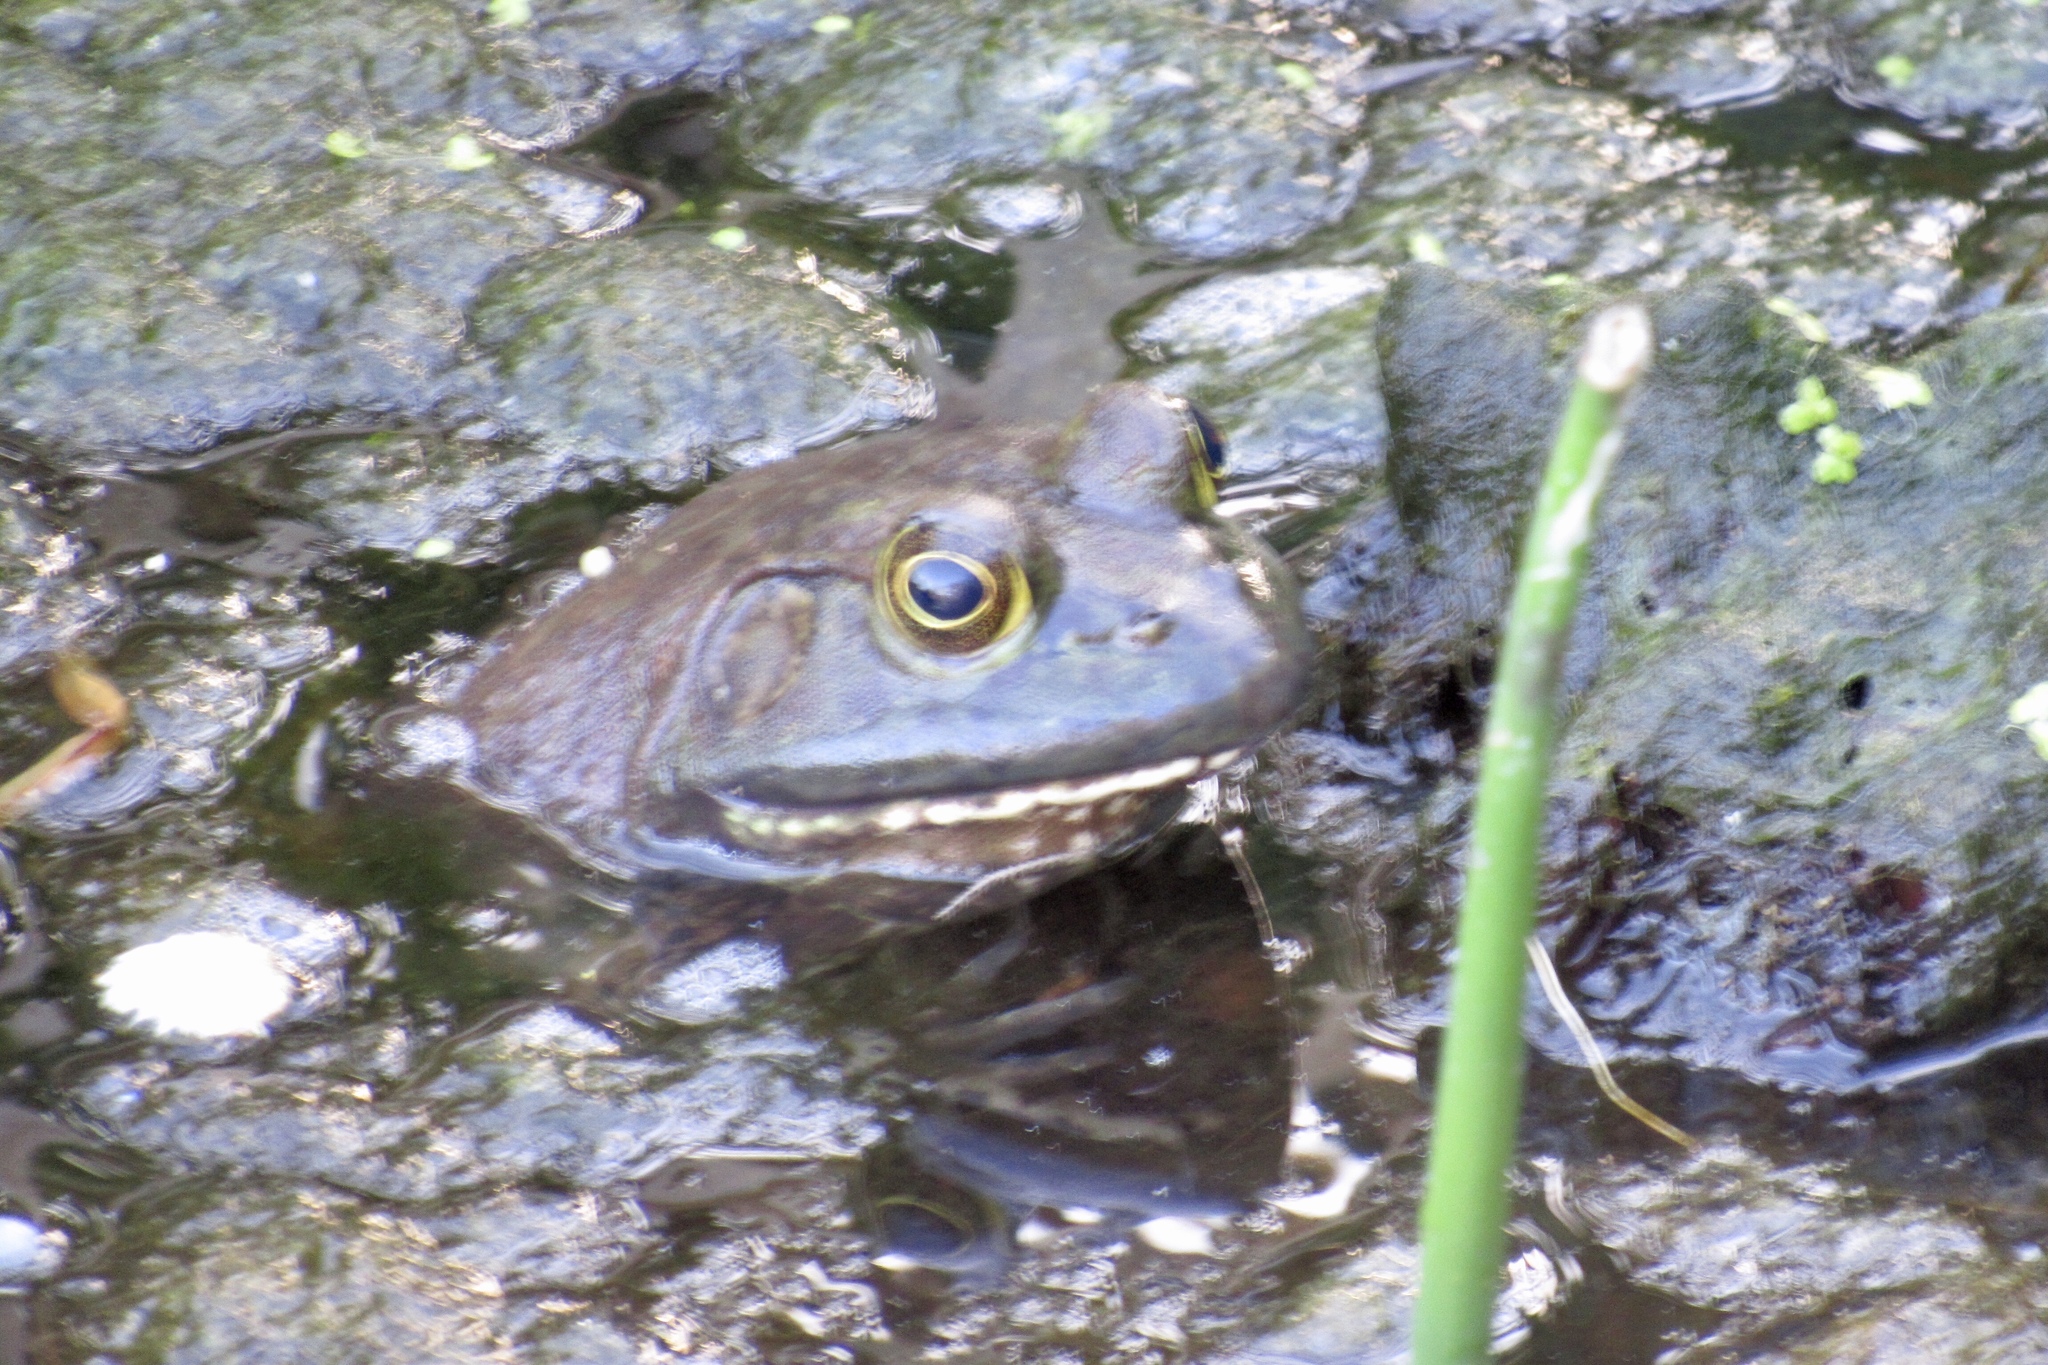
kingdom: Animalia
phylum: Chordata
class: Amphibia
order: Anura
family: Ranidae
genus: Lithobates
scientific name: Lithobates catesbeianus
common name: American bullfrog
